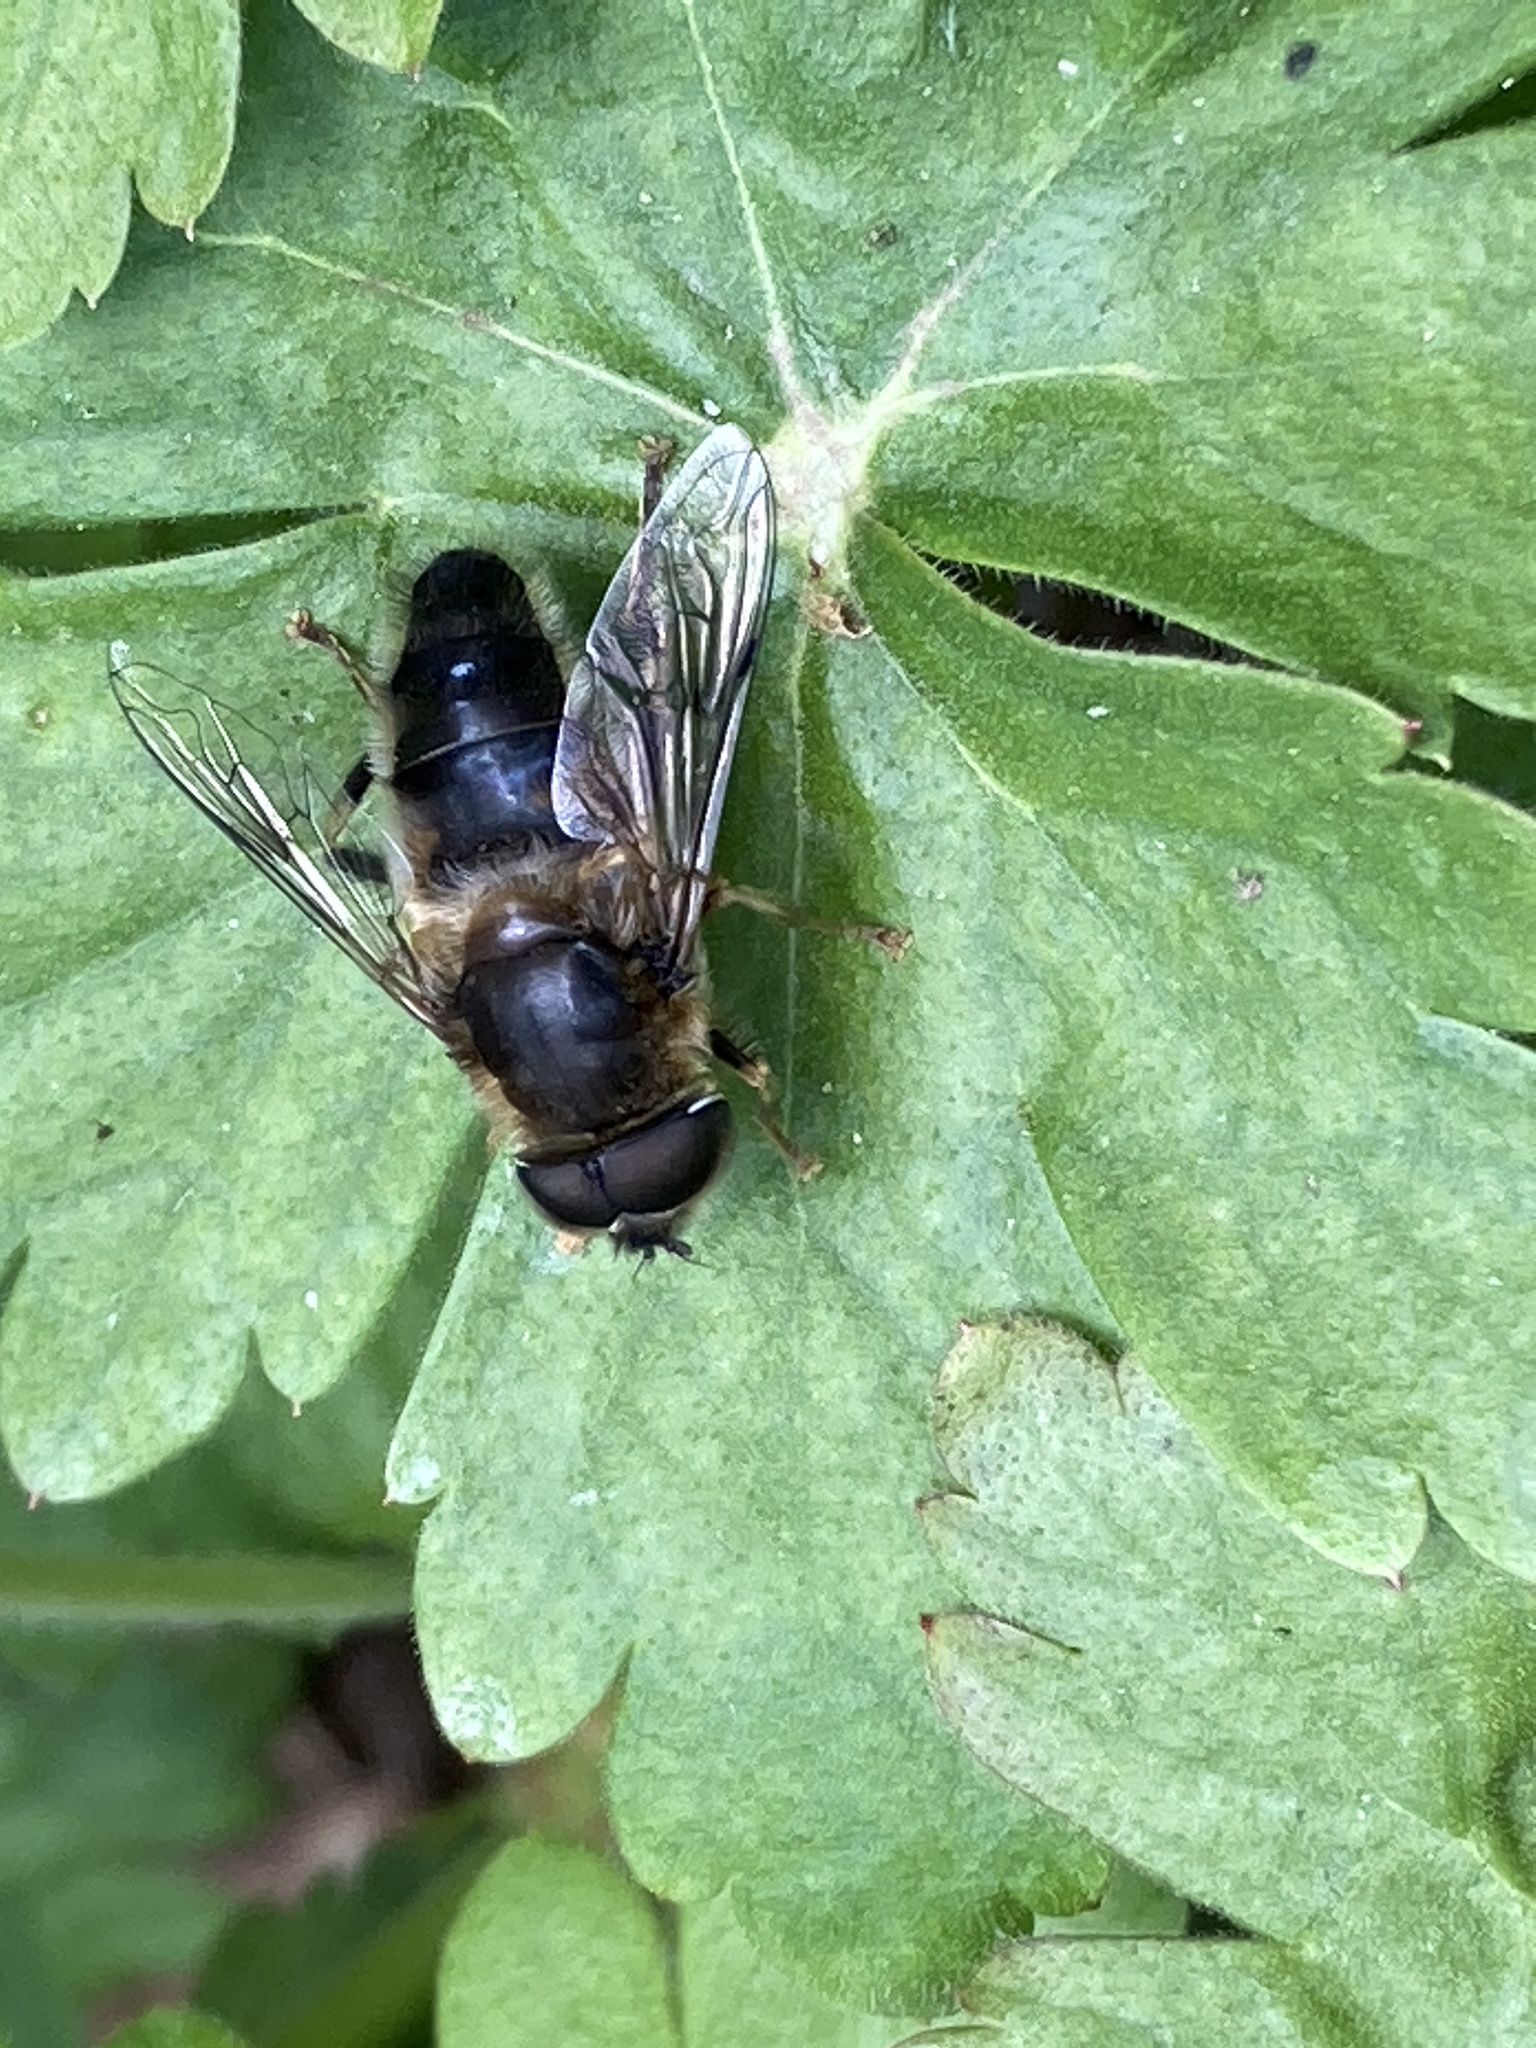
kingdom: Animalia
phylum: Arthropoda
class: Insecta
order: Diptera
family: Syrphidae
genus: Eristalis
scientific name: Eristalis pertinax
